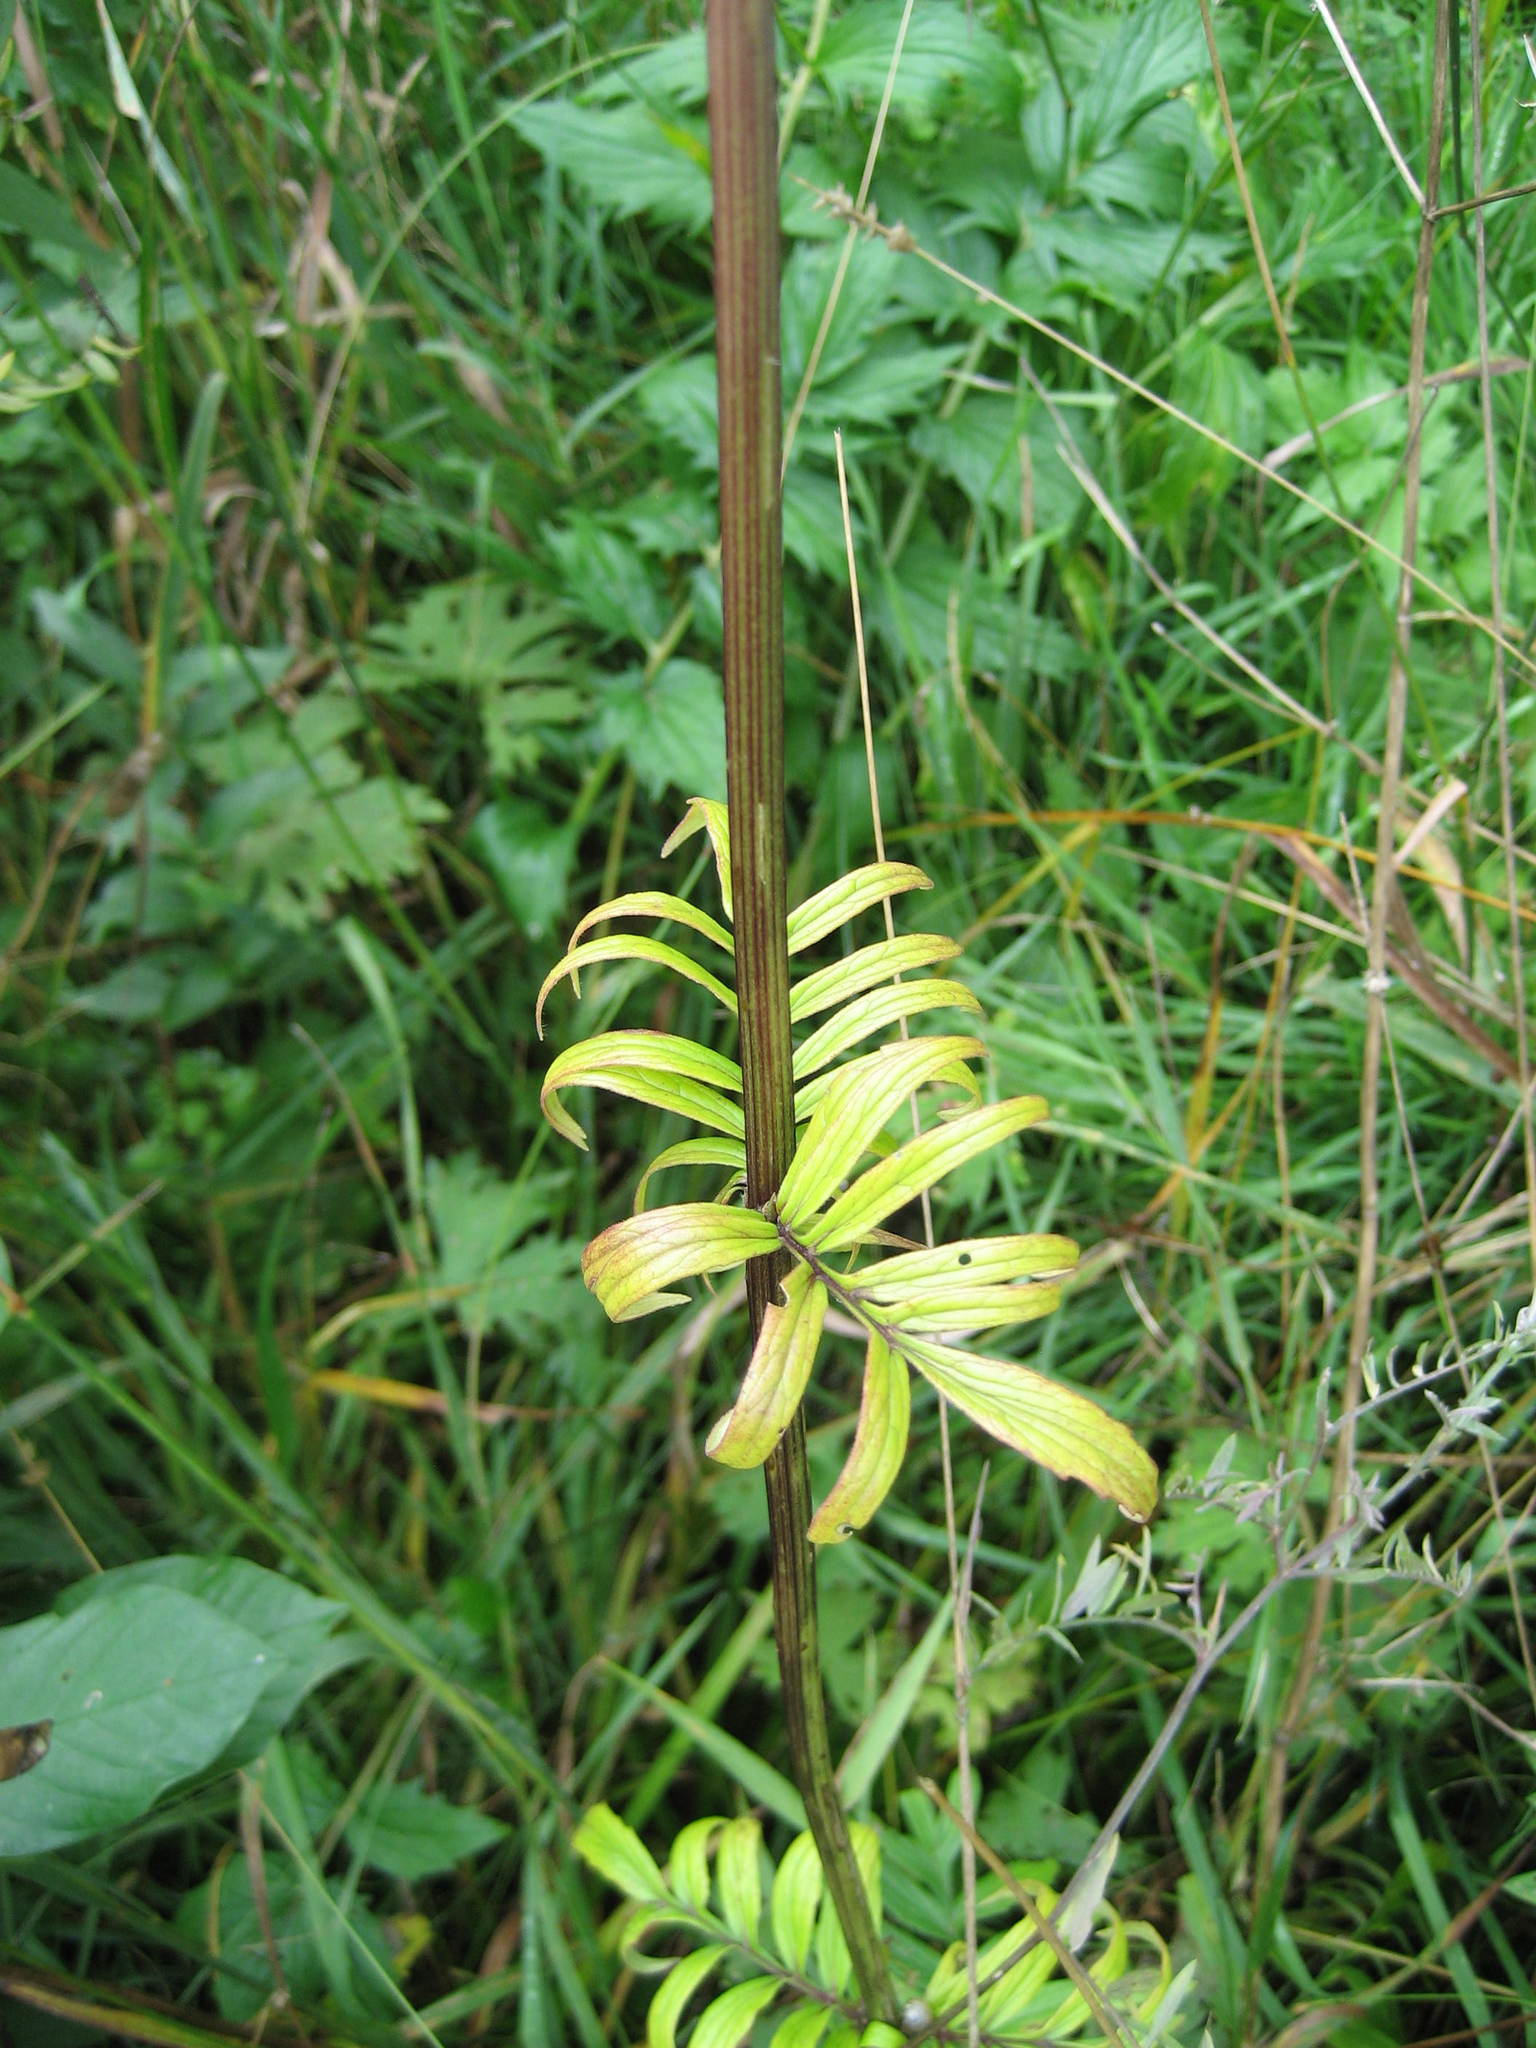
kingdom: Plantae
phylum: Tracheophyta
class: Magnoliopsida
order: Dipsacales
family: Caprifoliaceae
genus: Valeriana
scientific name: Valeriana officinalis
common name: Common valerian
